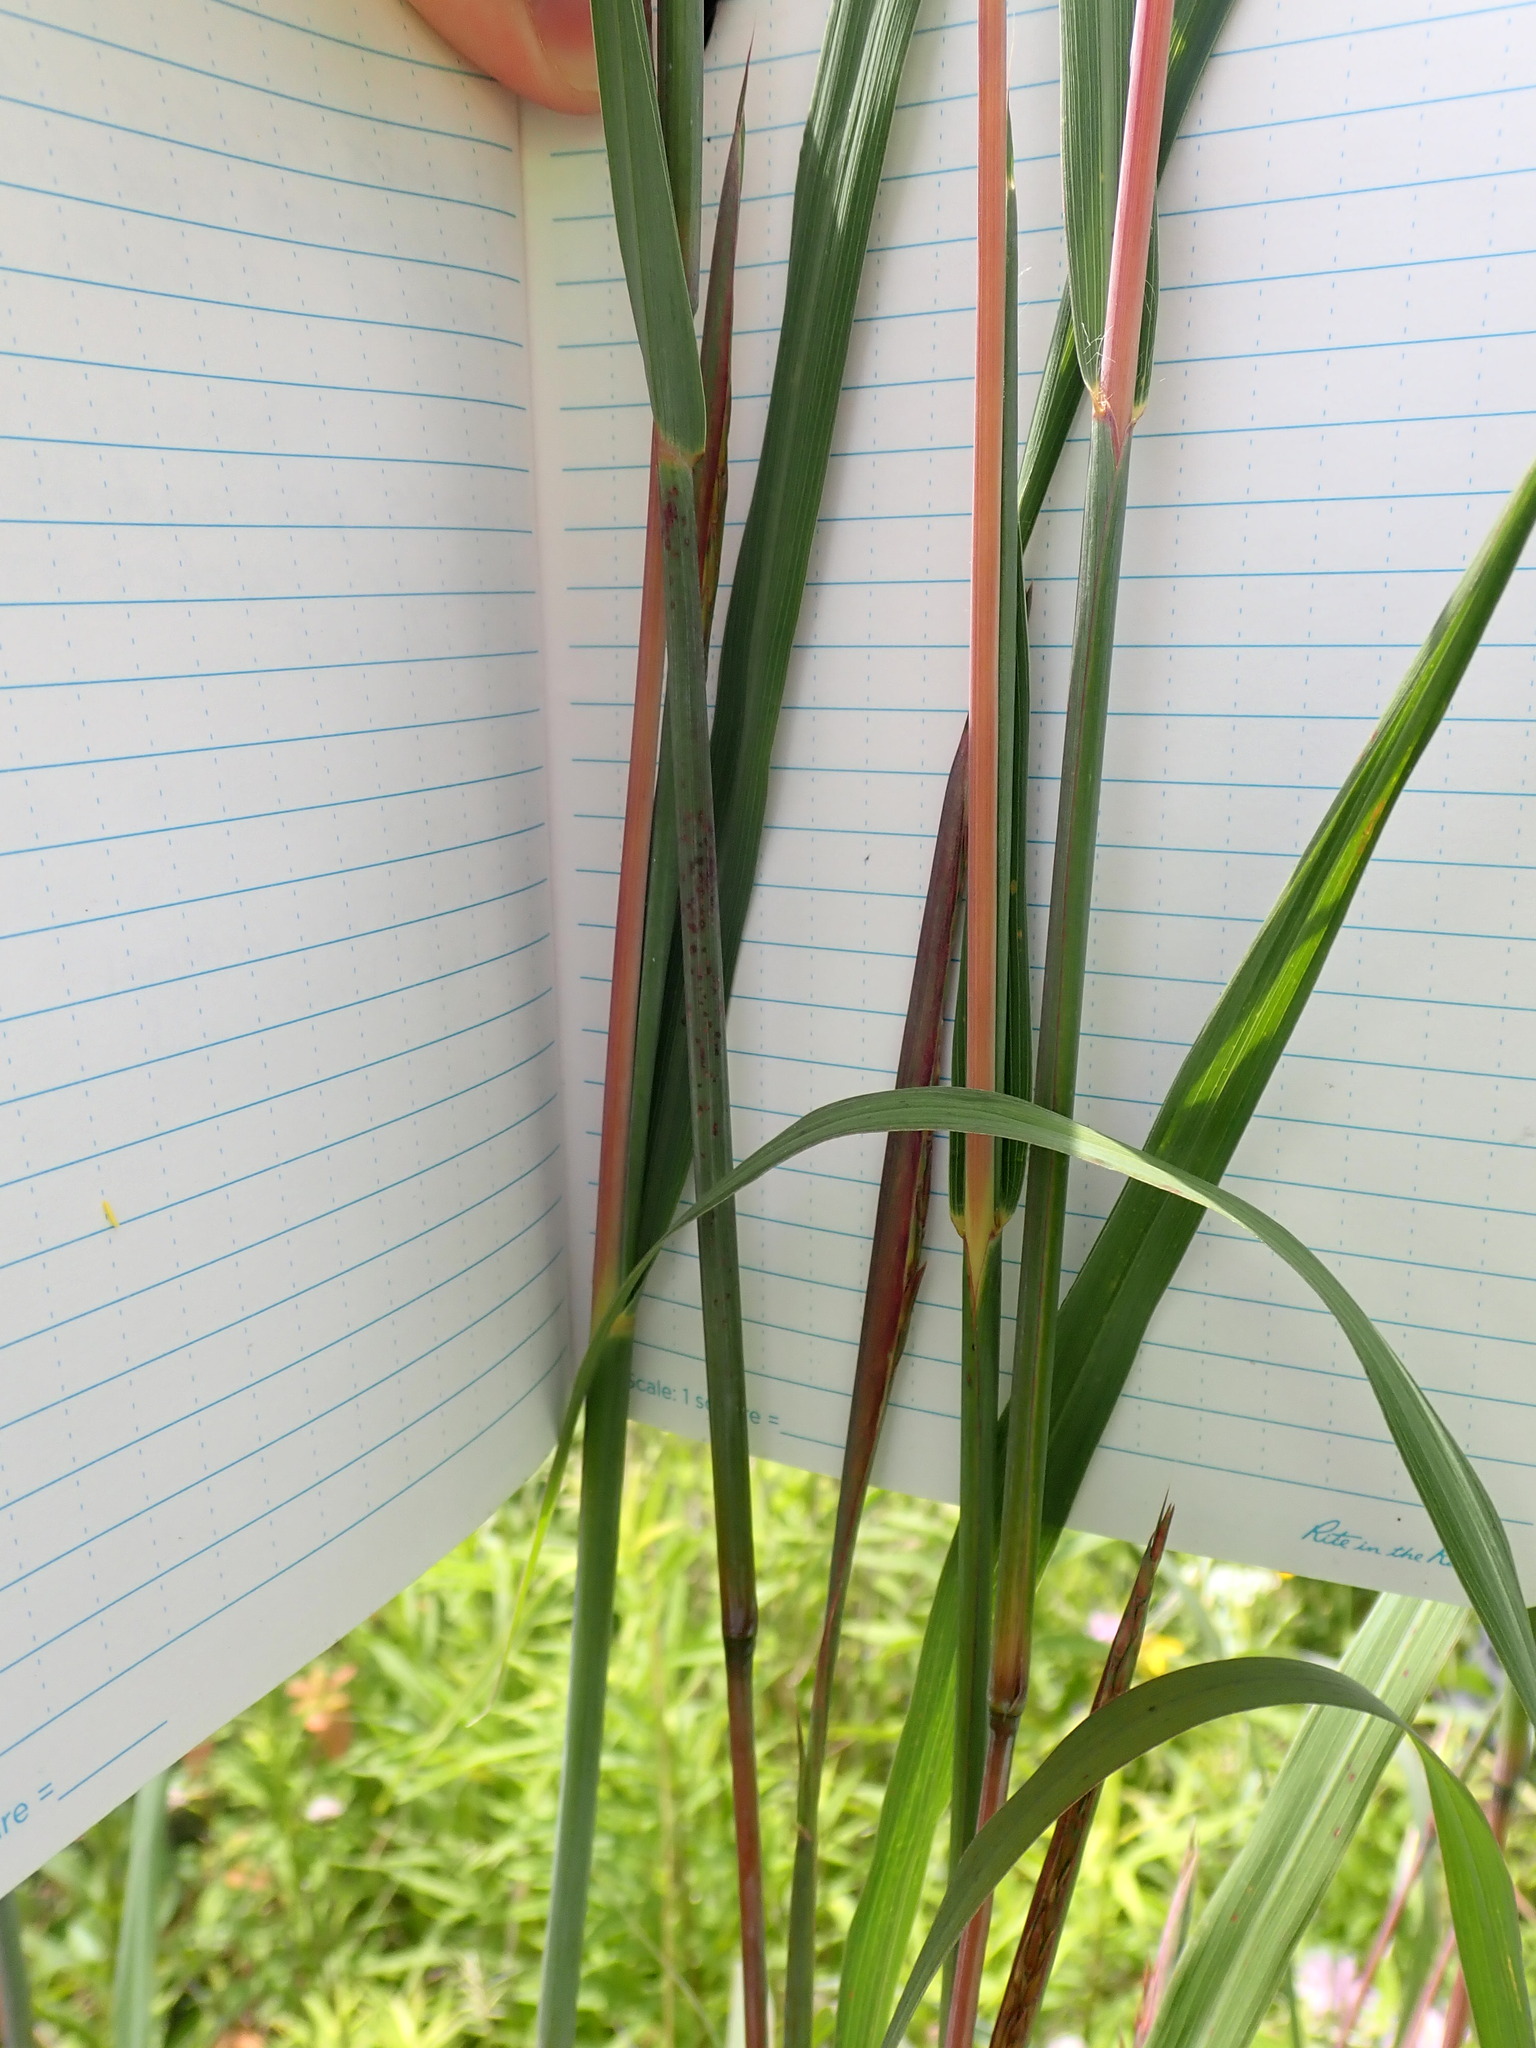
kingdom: Plantae
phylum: Tracheophyta
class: Liliopsida
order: Poales
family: Poaceae
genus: Andropogon
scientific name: Andropogon gerardi
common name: Big bluestem
